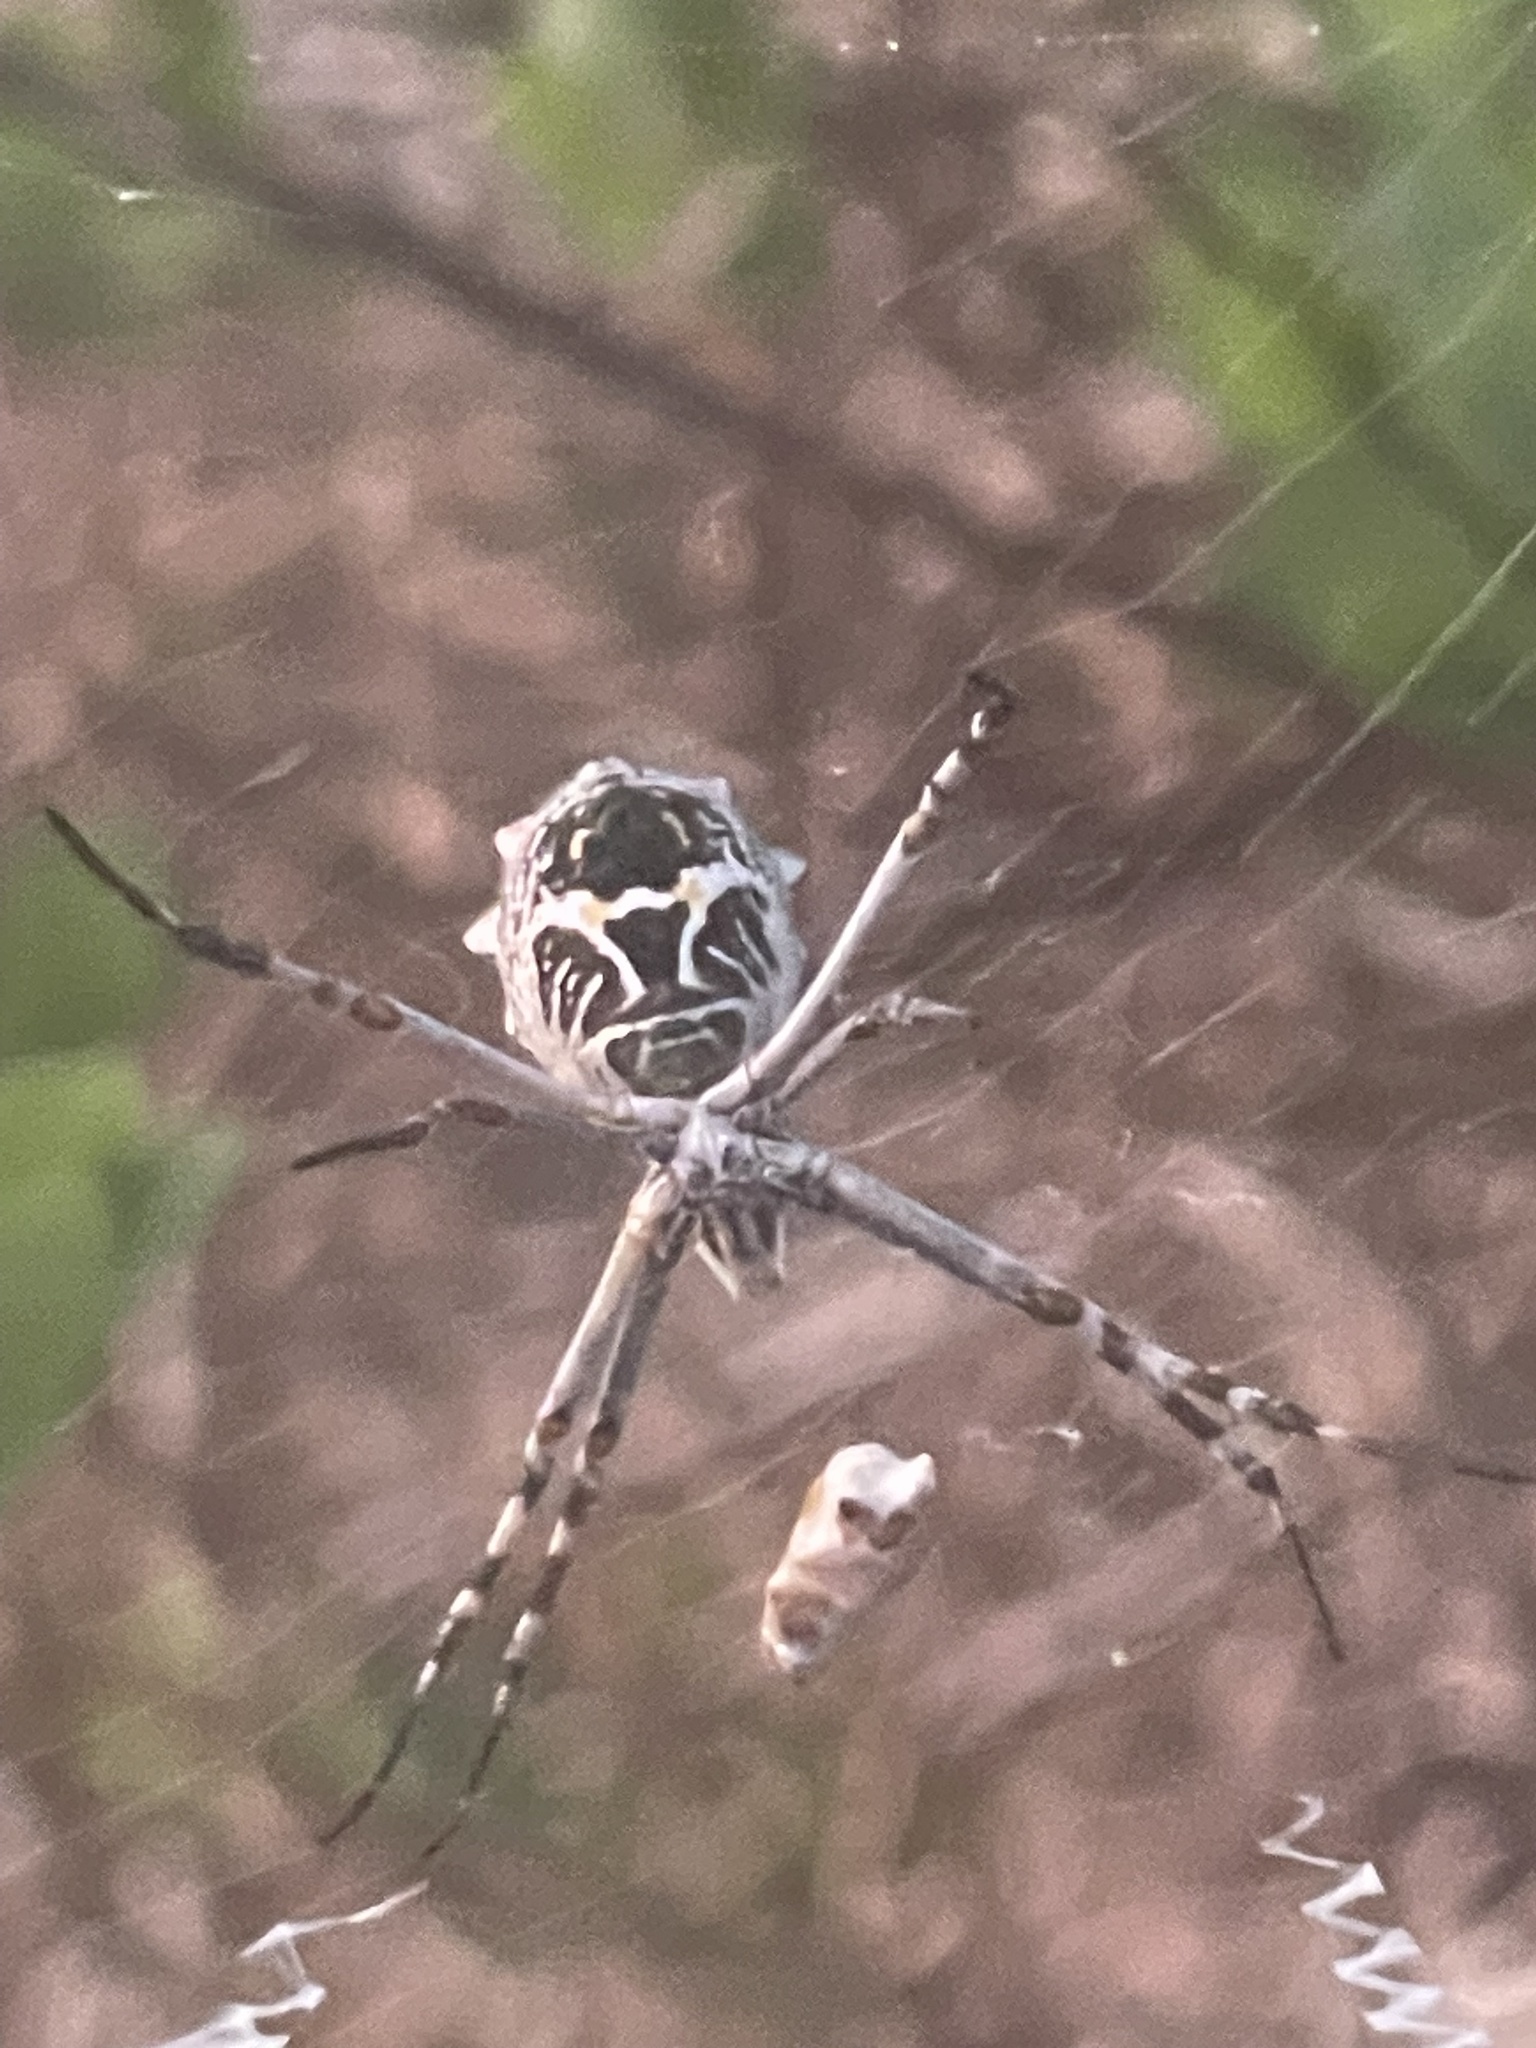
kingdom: Animalia
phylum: Arthropoda
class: Arachnida
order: Araneae
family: Araneidae
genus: Argiope
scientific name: Argiope argentata
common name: Orb weavers
